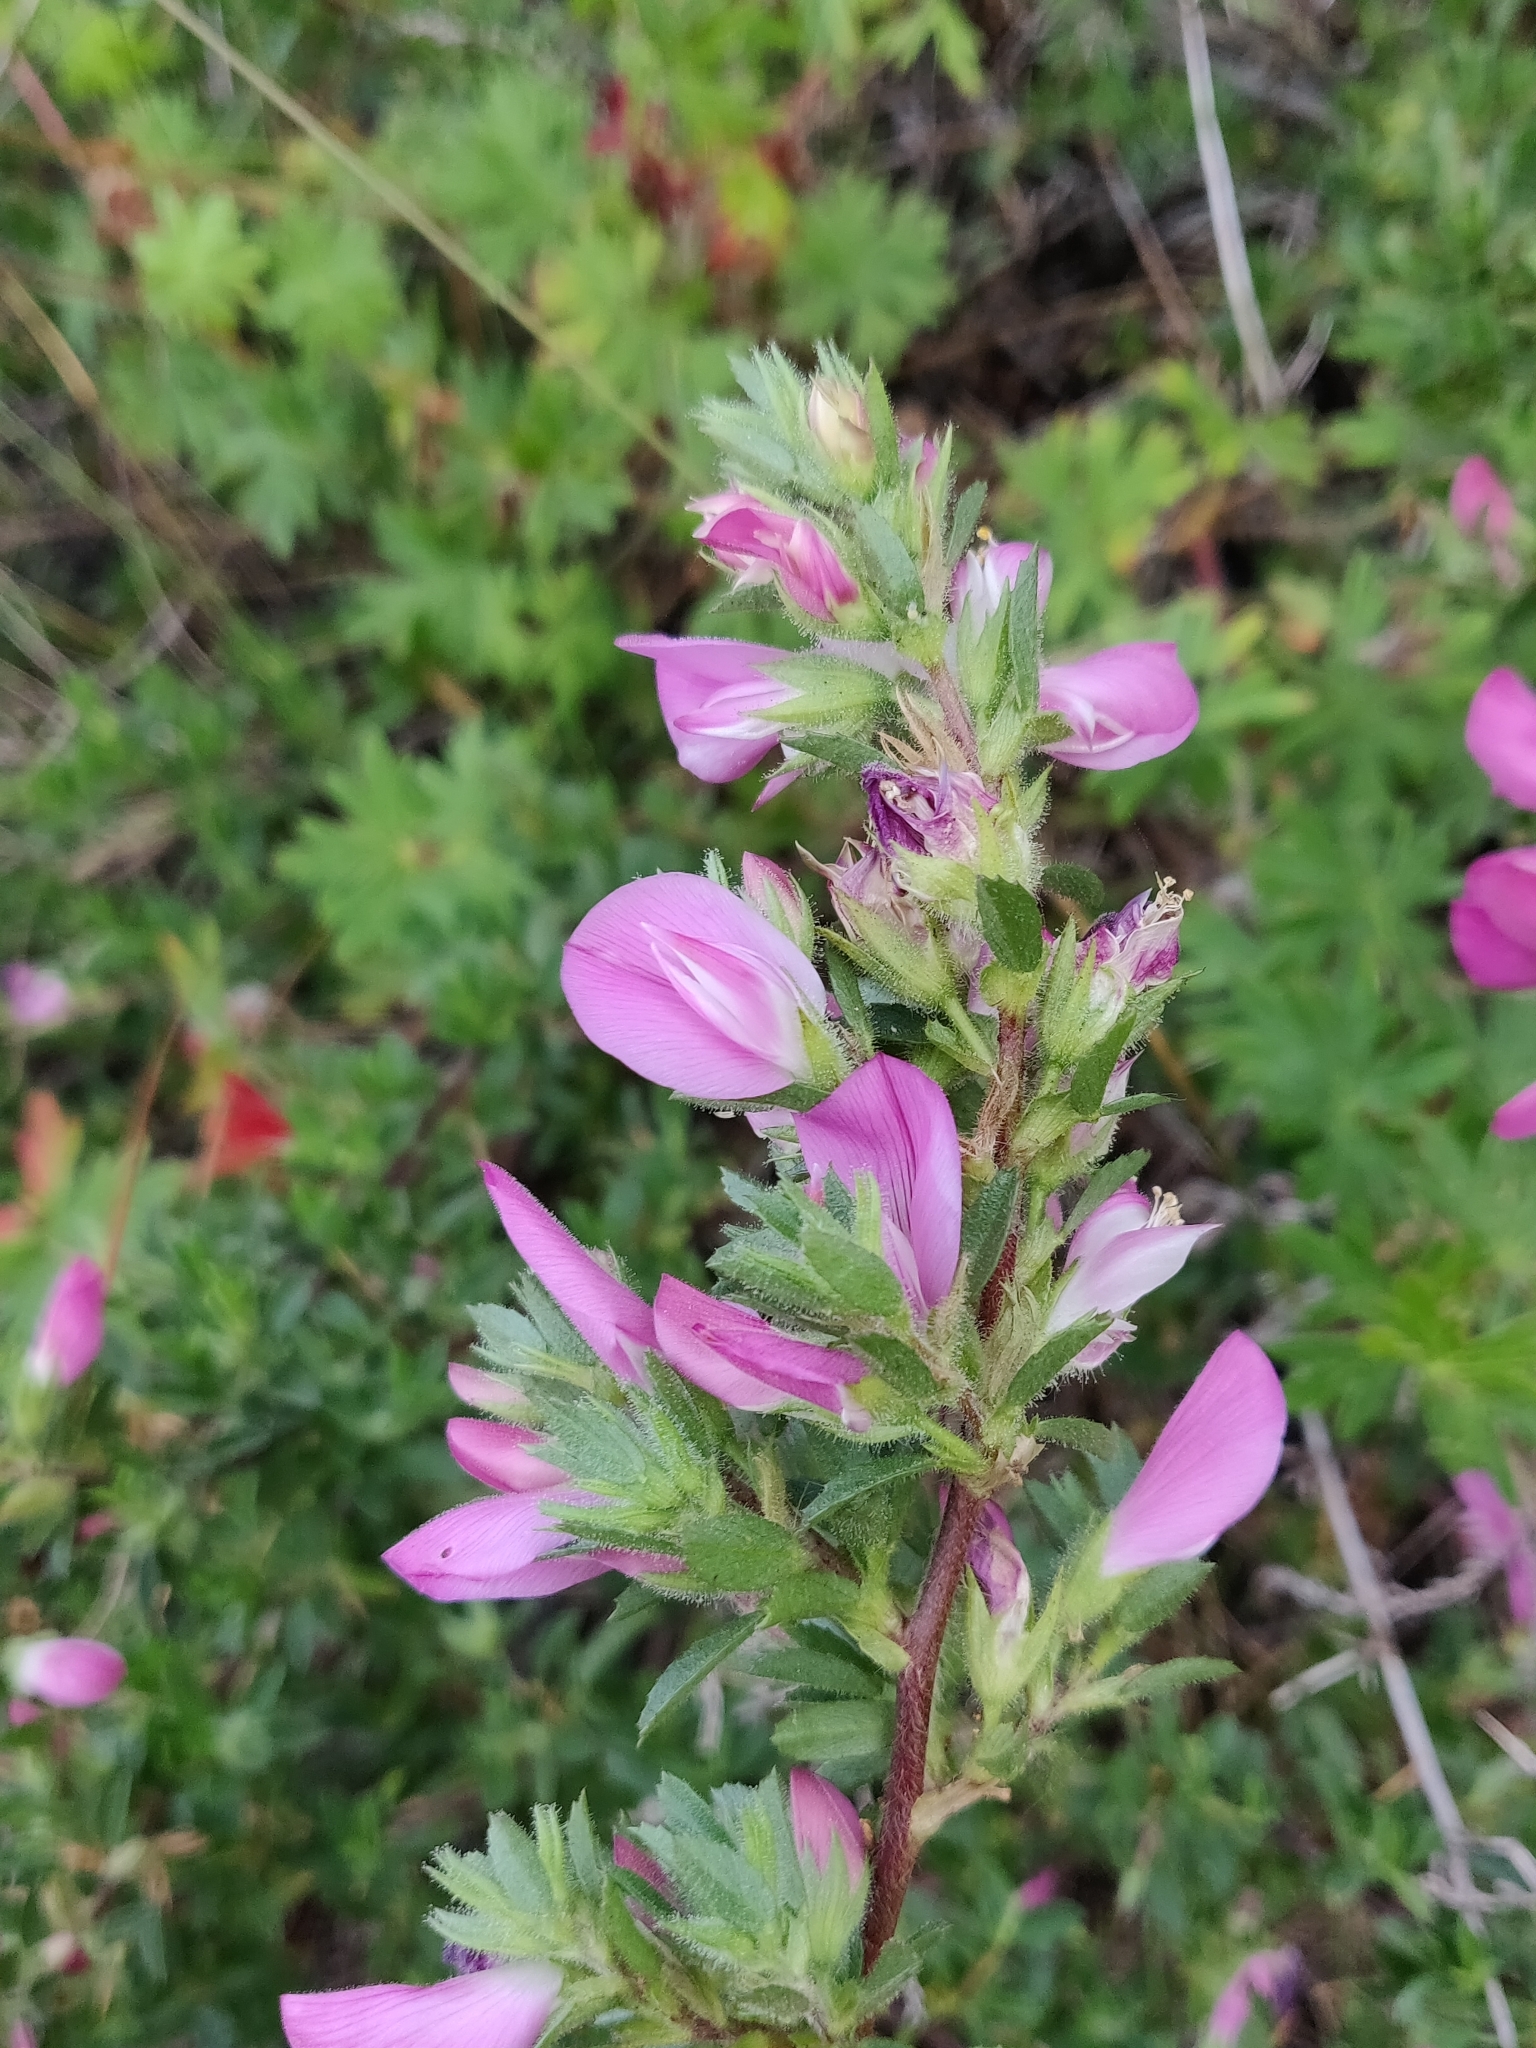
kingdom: Plantae
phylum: Tracheophyta
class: Magnoliopsida
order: Fabales
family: Fabaceae
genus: Ononis
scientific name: Ononis spinosa
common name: Spiny restharrow
